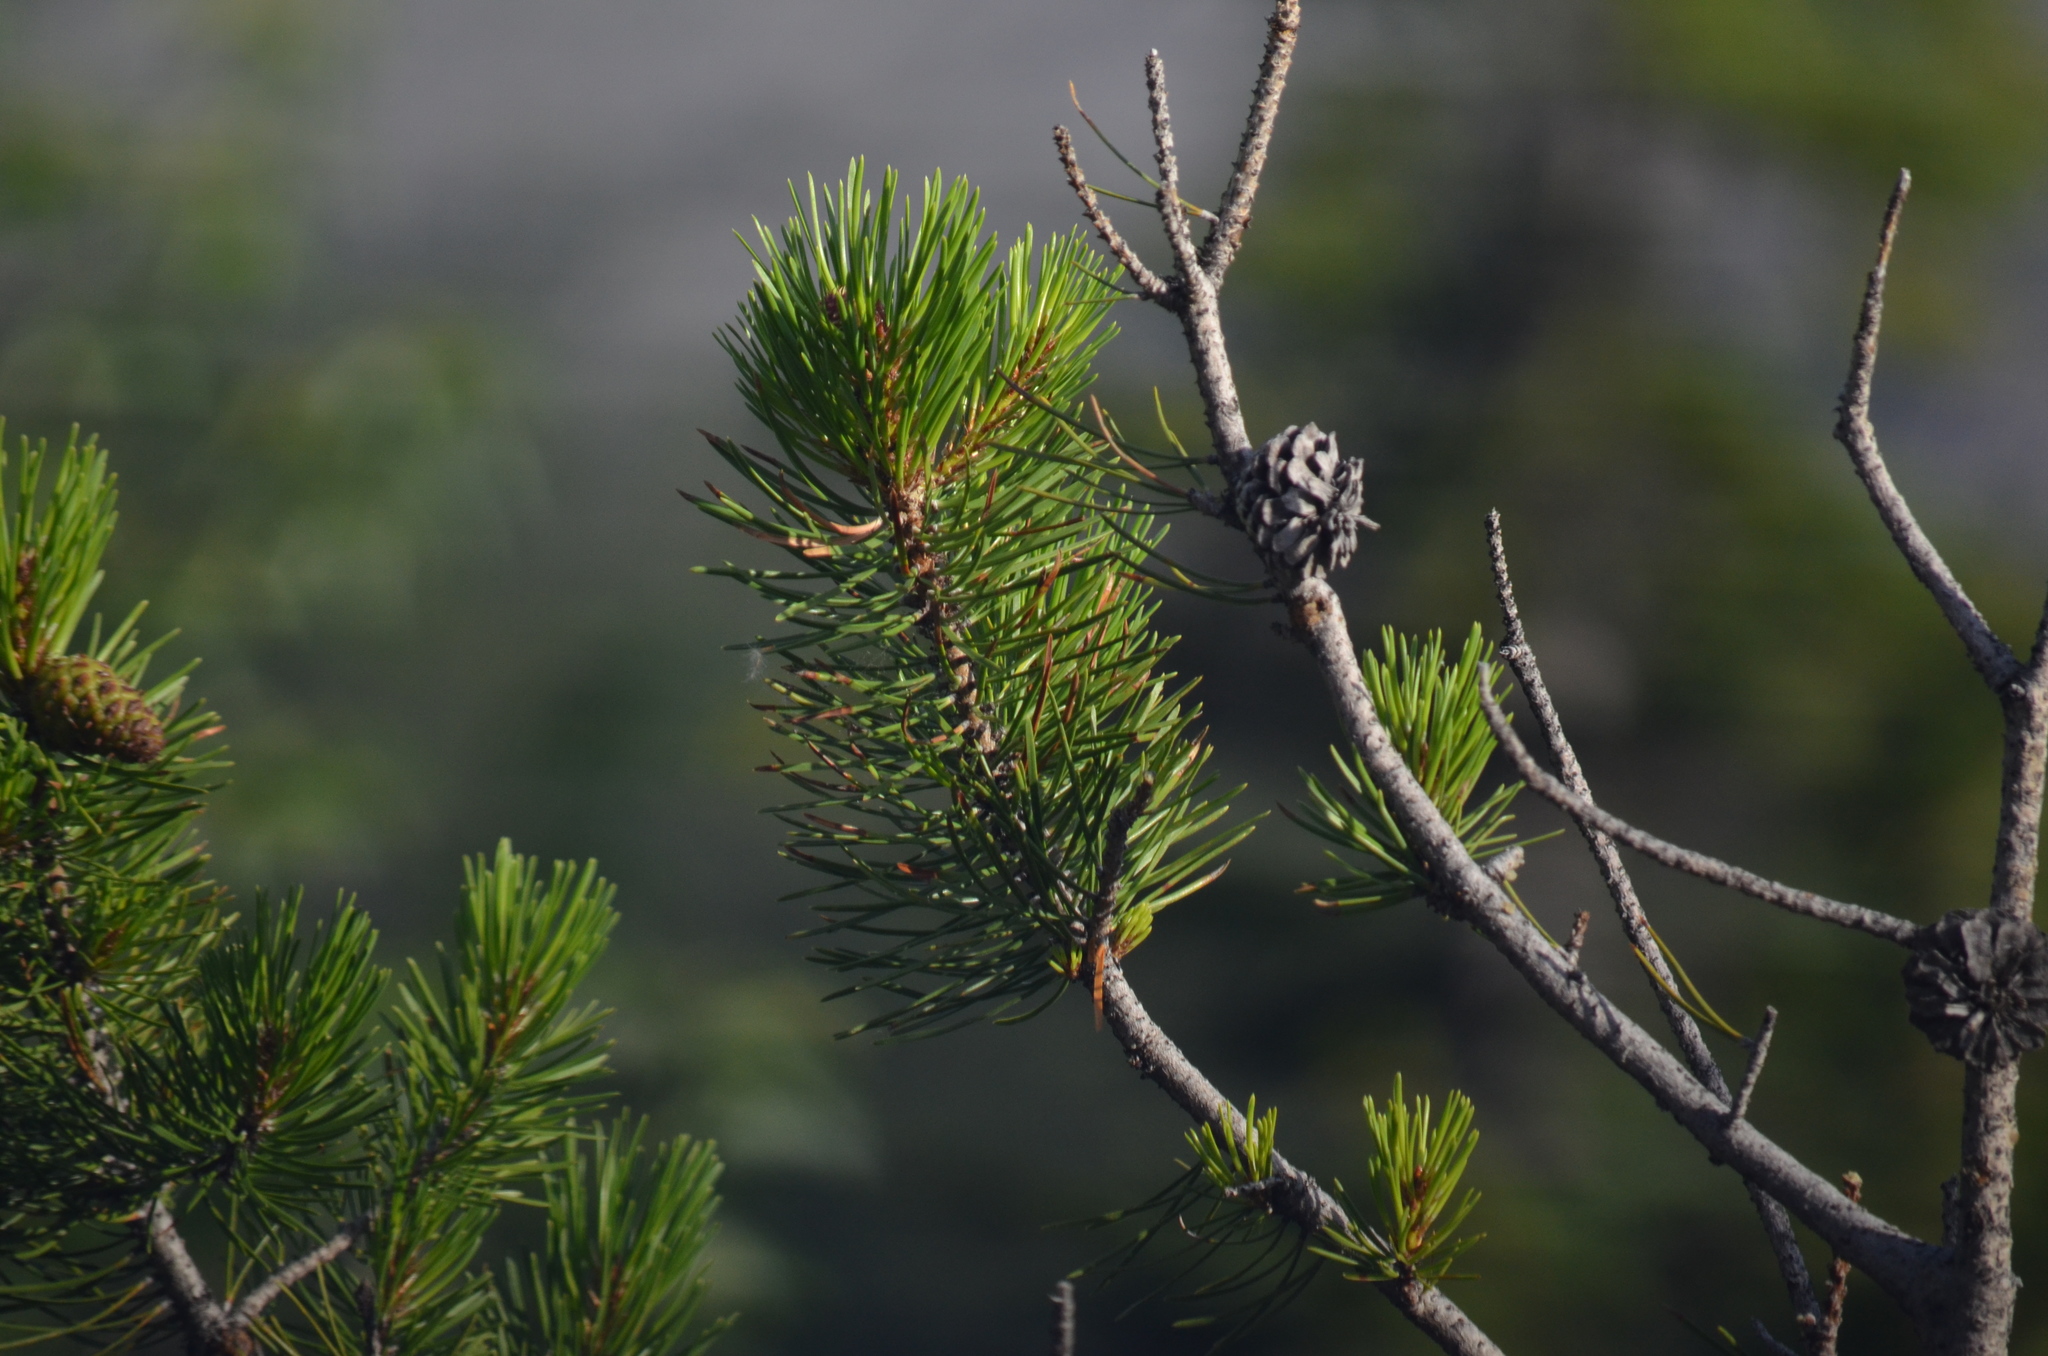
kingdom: Plantae
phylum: Tracheophyta
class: Pinopsida
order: Pinales
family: Pinaceae
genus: Pinus
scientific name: Pinus contorta
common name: Lodgepole pine
